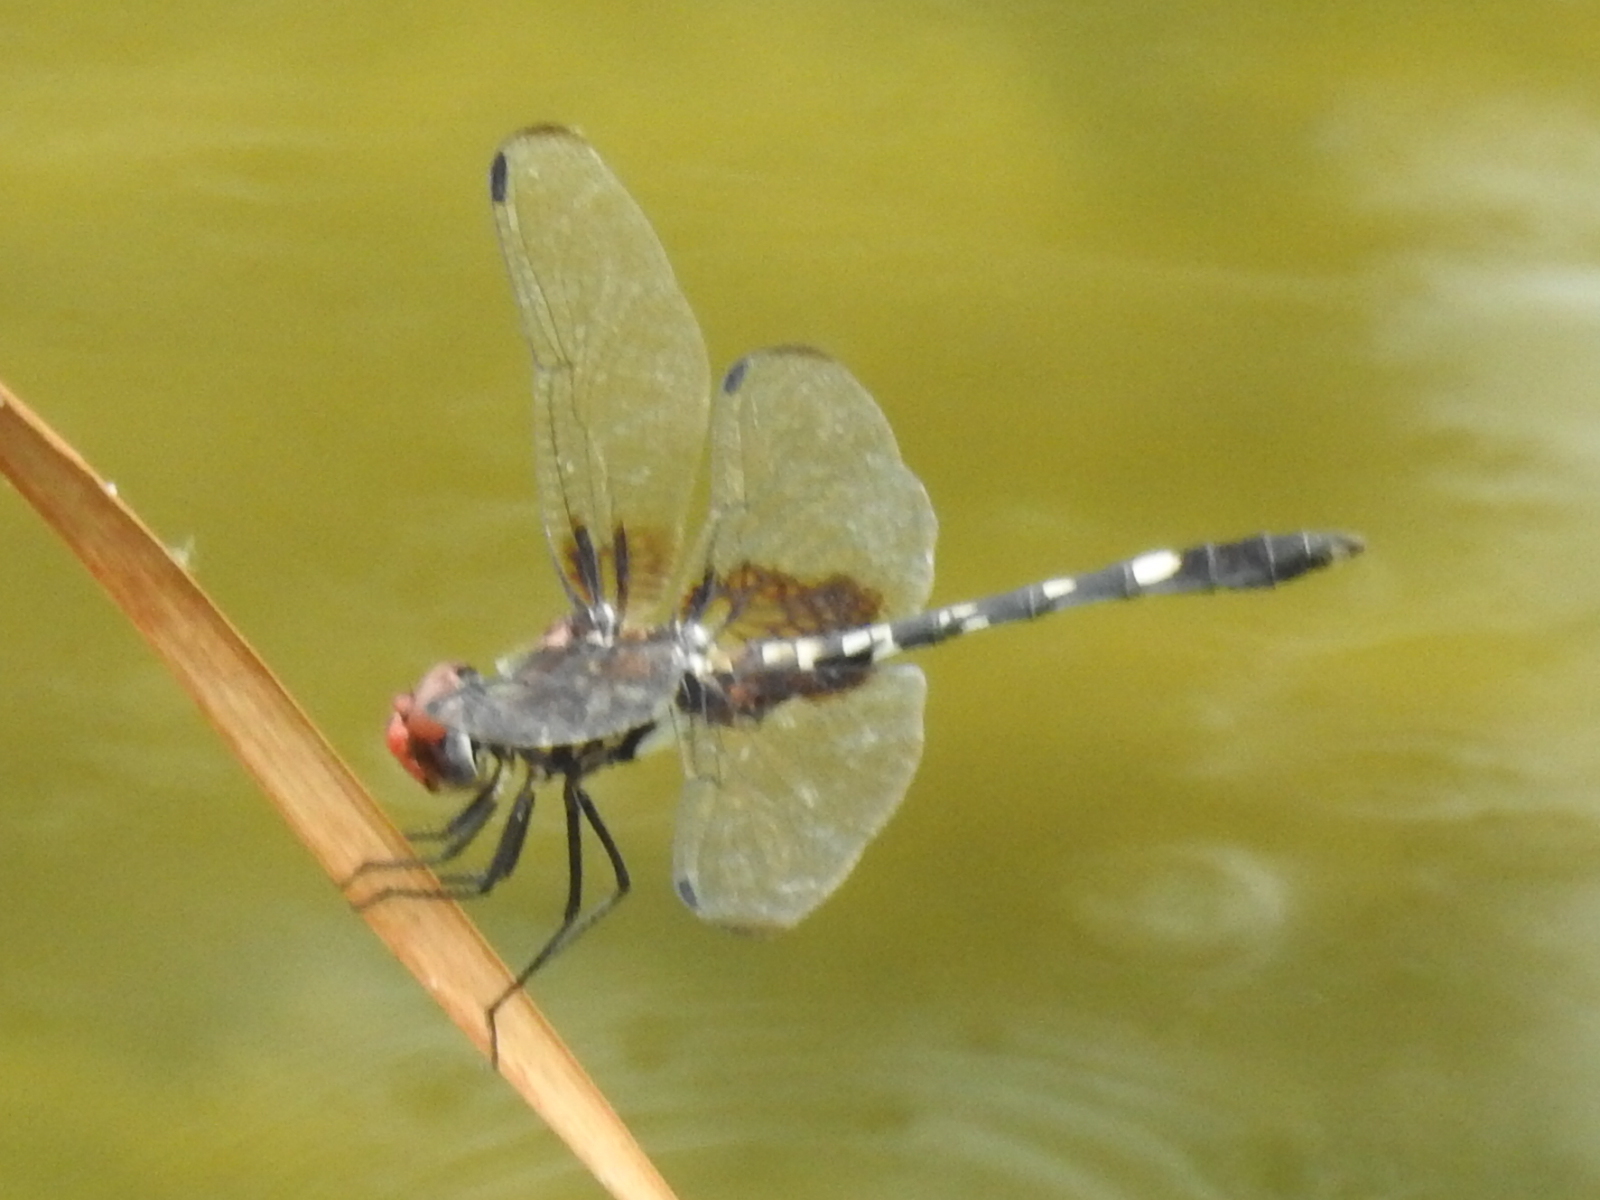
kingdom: Animalia
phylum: Arthropoda
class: Insecta
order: Odonata
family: Libellulidae
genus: Dythemis
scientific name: Dythemis fugax
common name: Checkered setwing
